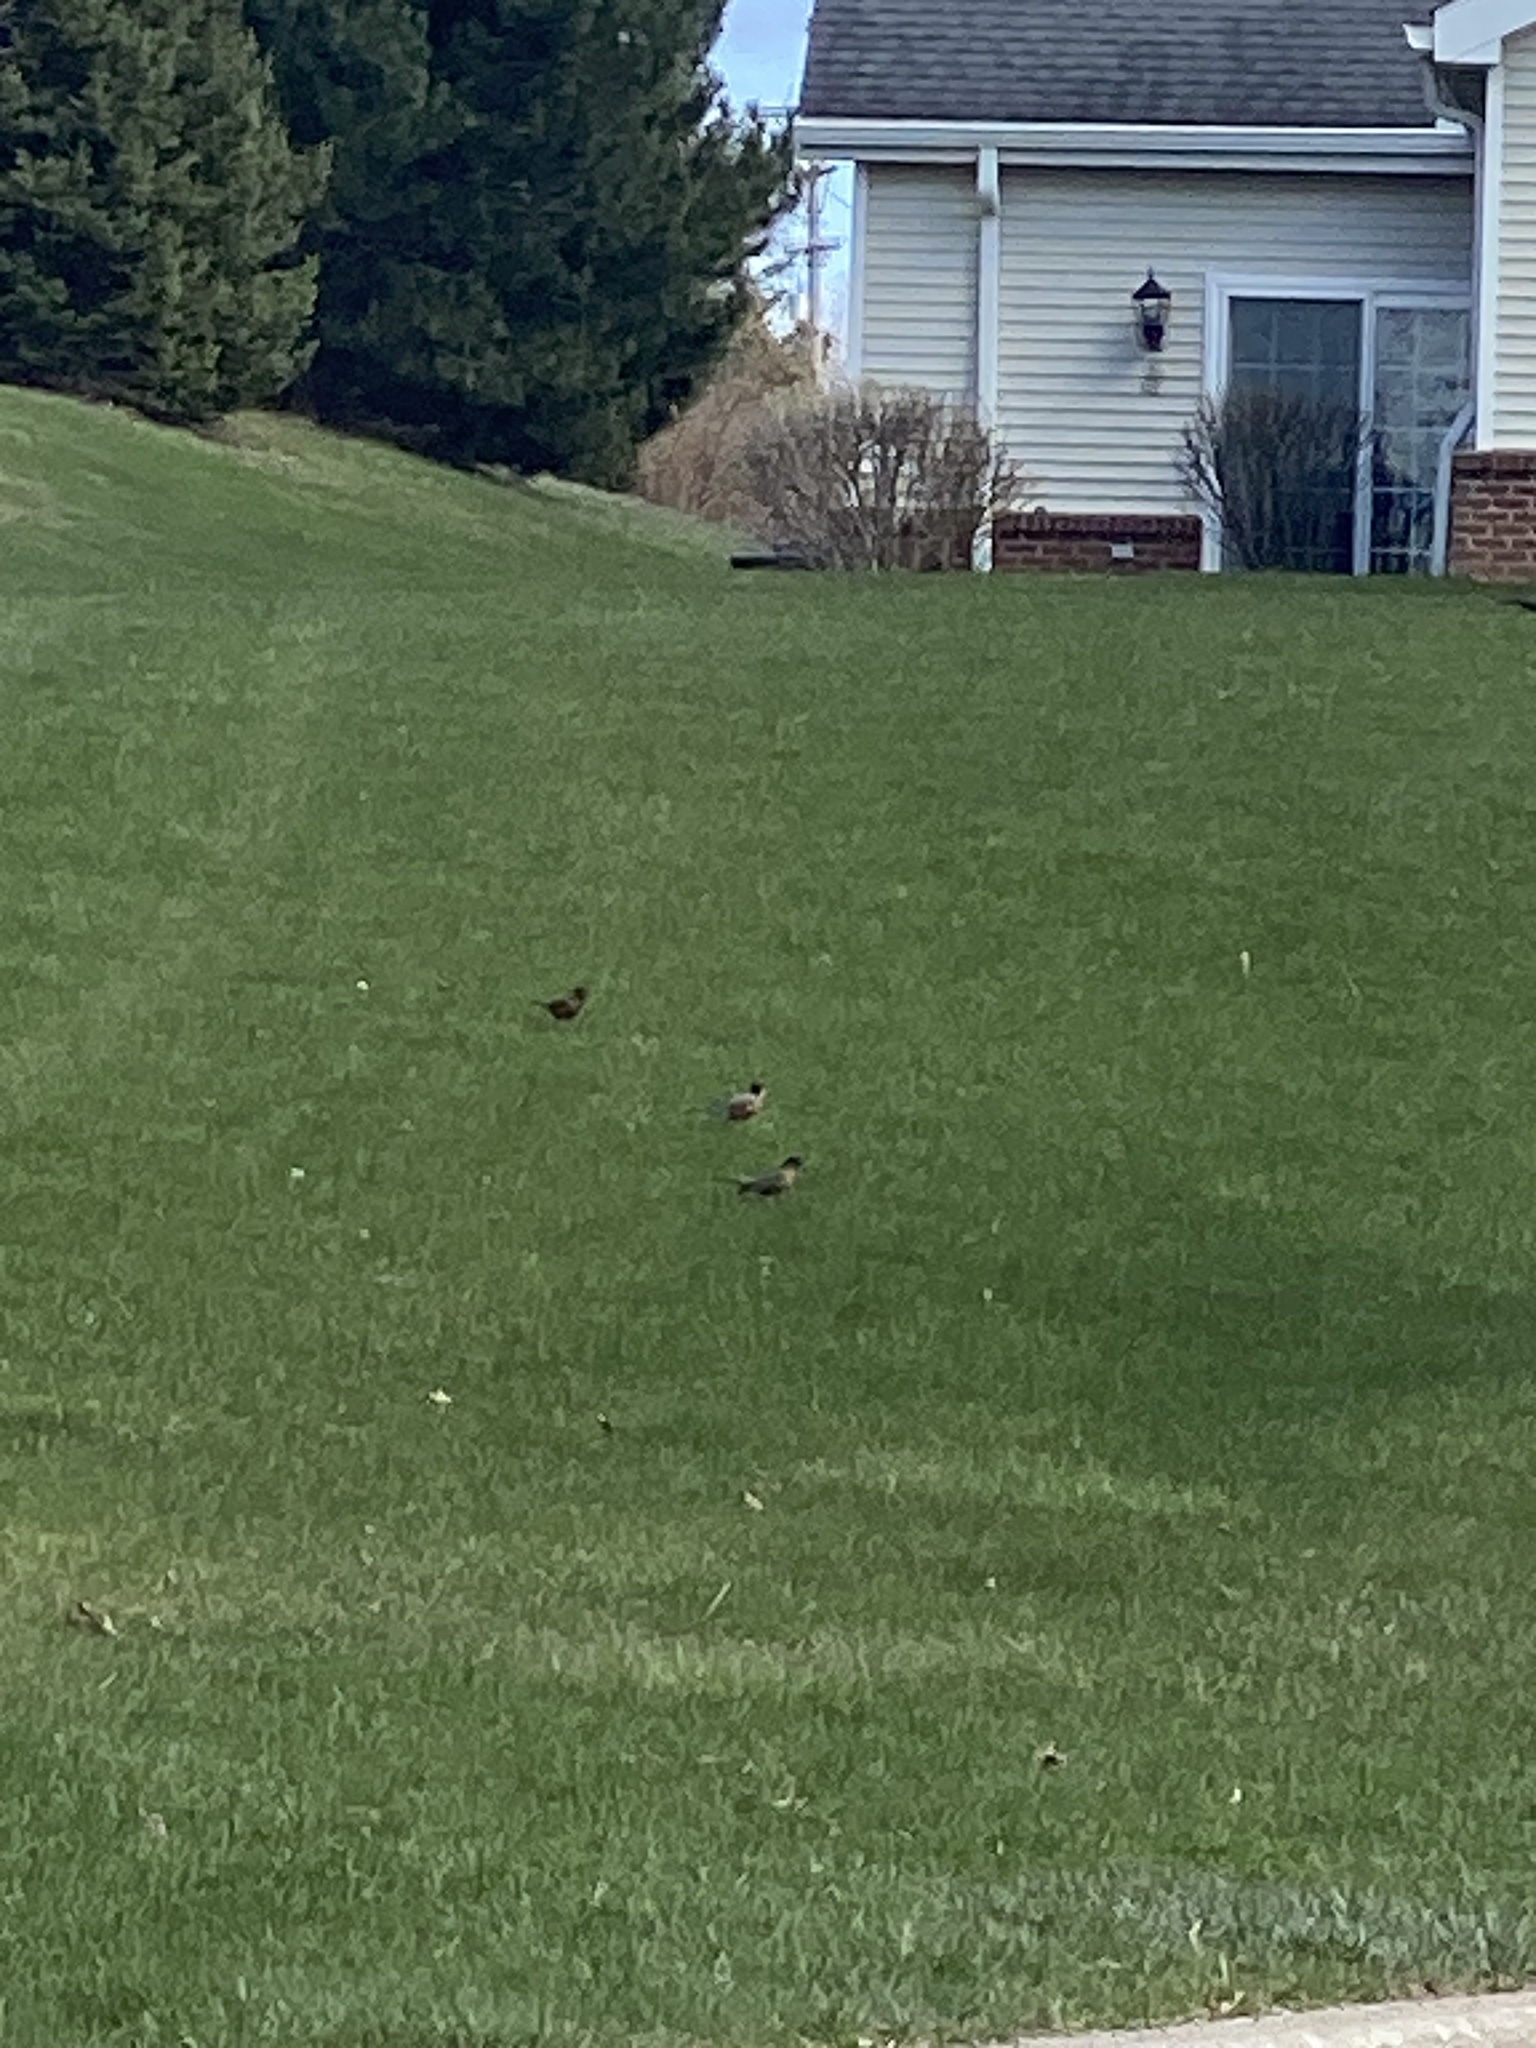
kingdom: Animalia
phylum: Chordata
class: Aves
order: Passeriformes
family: Turdidae
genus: Turdus
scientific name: Turdus migratorius
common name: American robin
